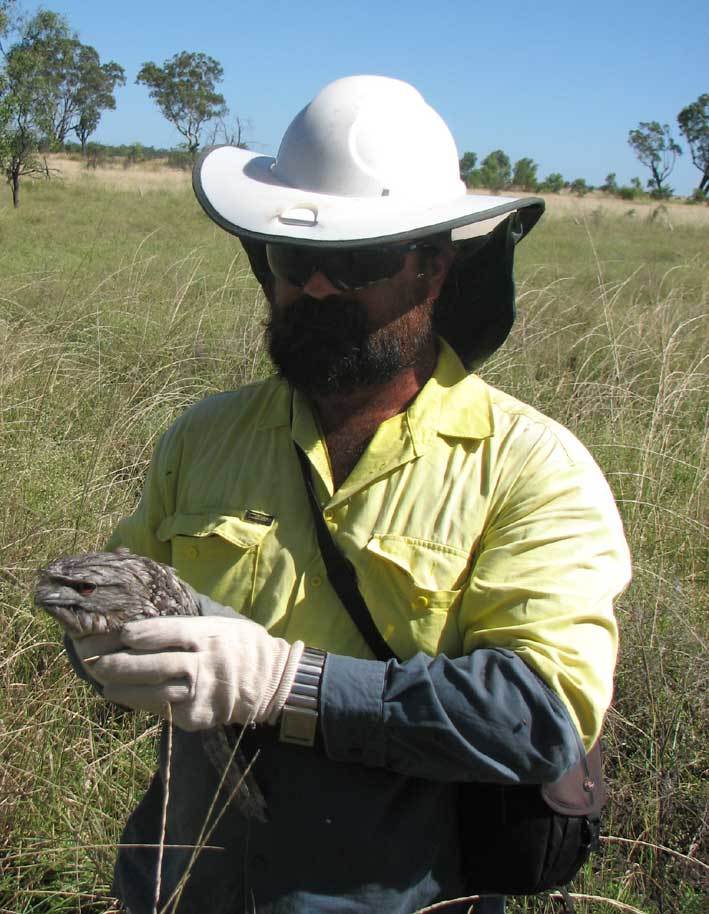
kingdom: Animalia
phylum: Chordata
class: Aves
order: Caprimulgiformes
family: Podargidae
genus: Podargus
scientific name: Podargus strigoides
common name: Tawny frogmouth
